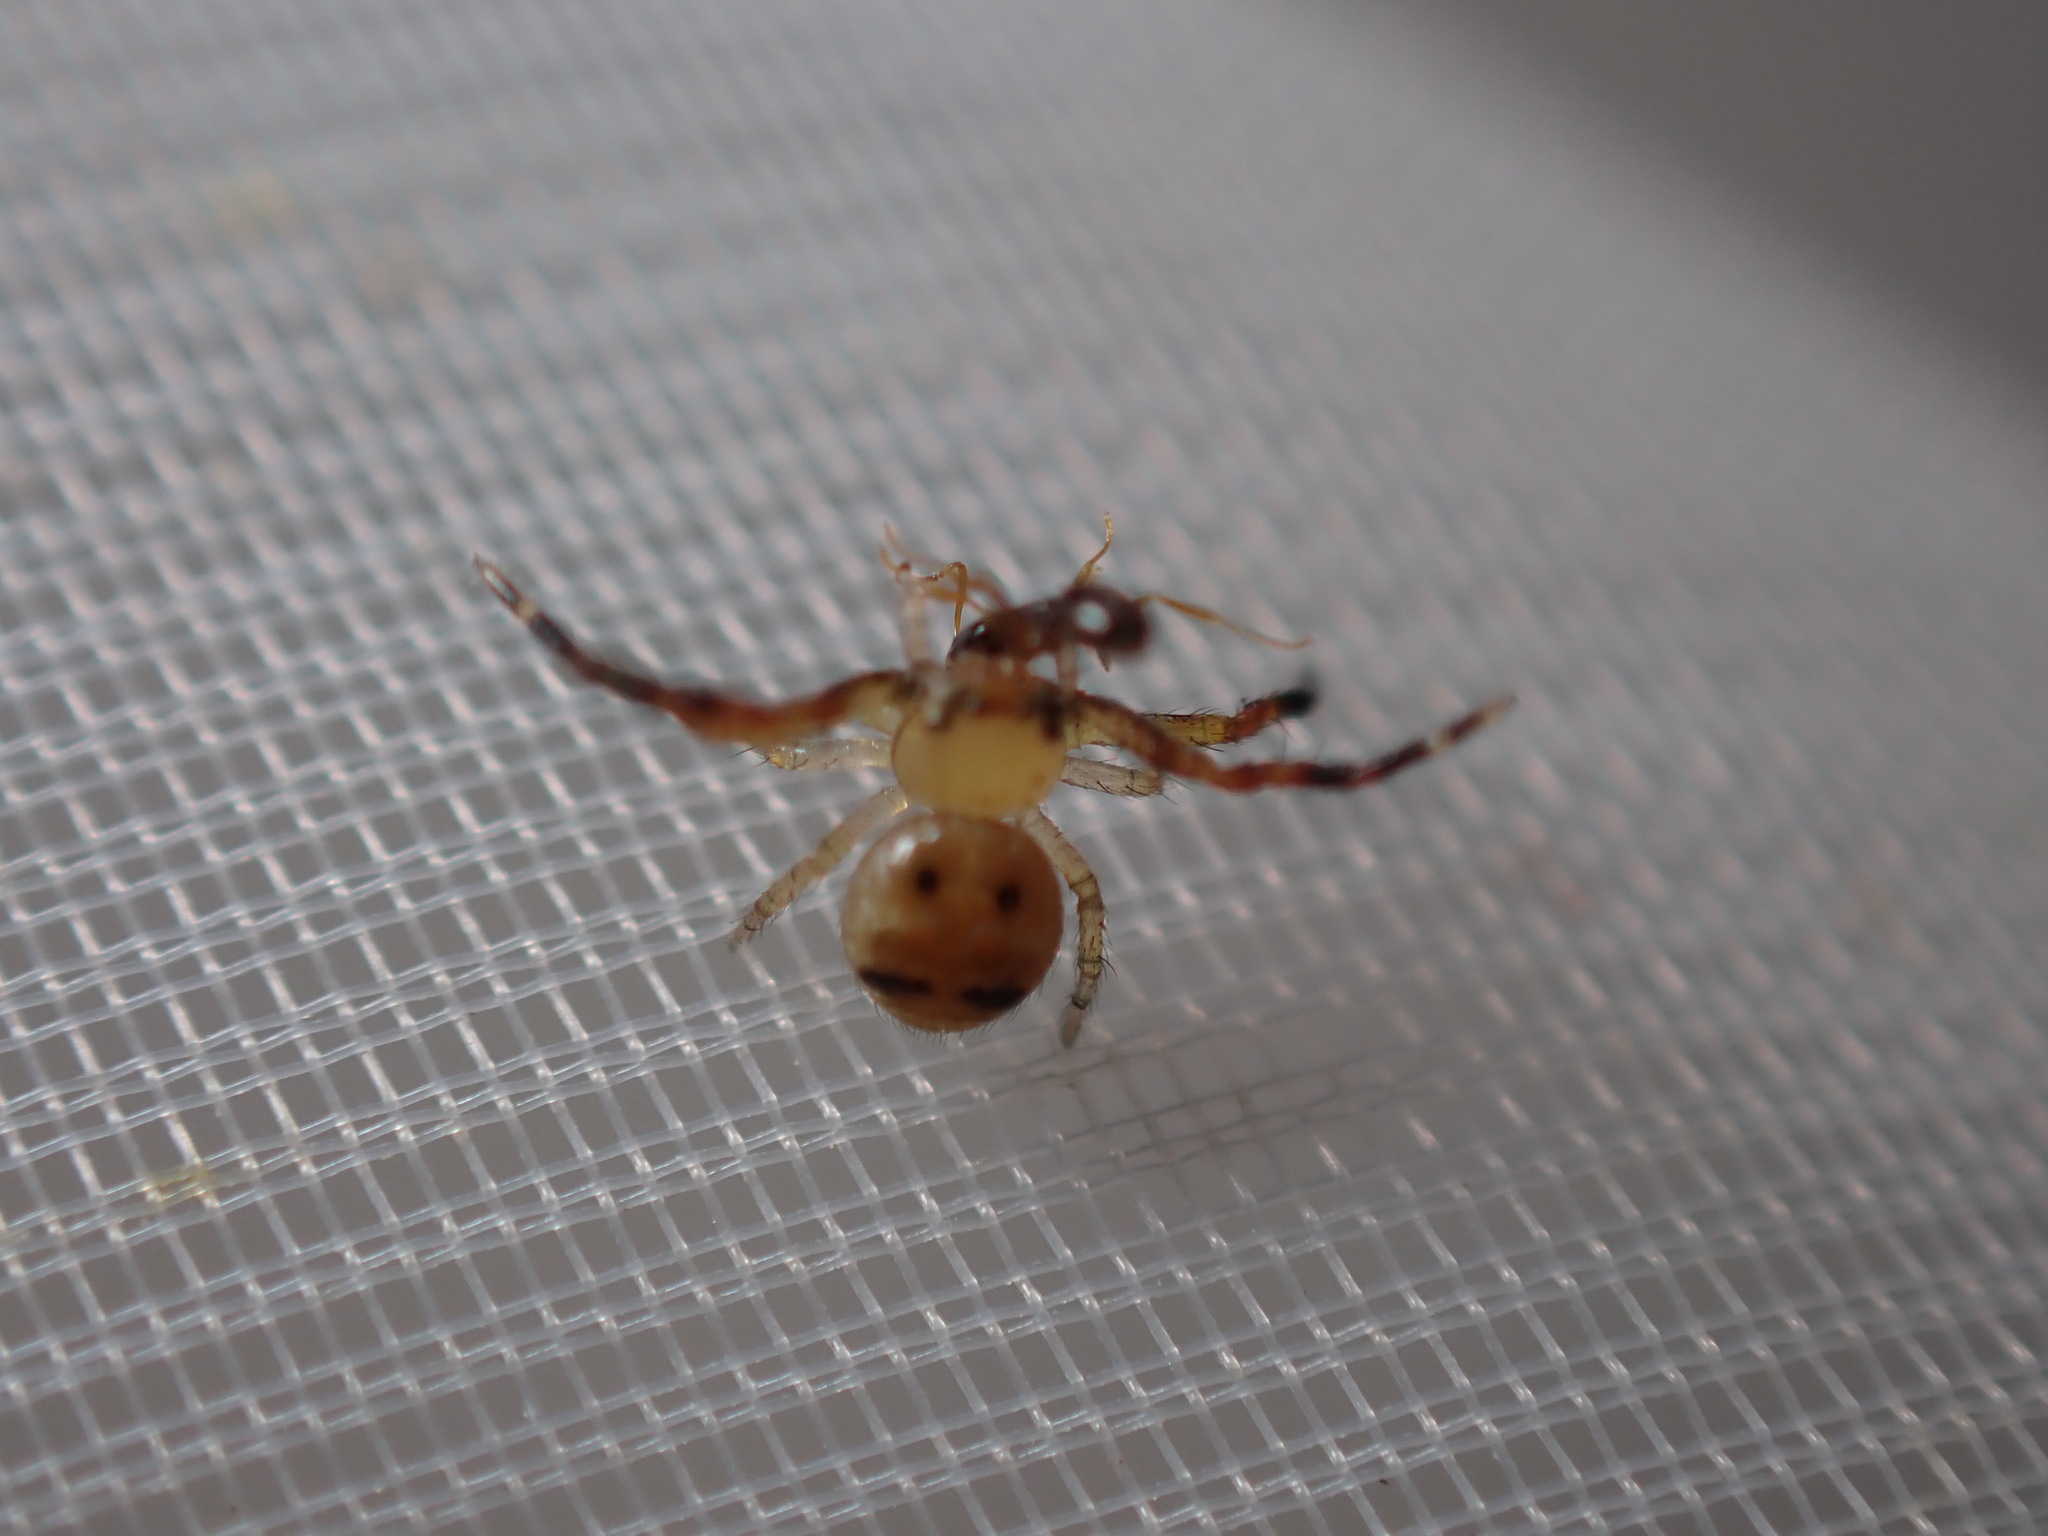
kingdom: Animalia
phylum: Arthropoda
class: Arachnida
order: Araneae
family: Thomisidae
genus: Synema
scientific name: Synema globosum
